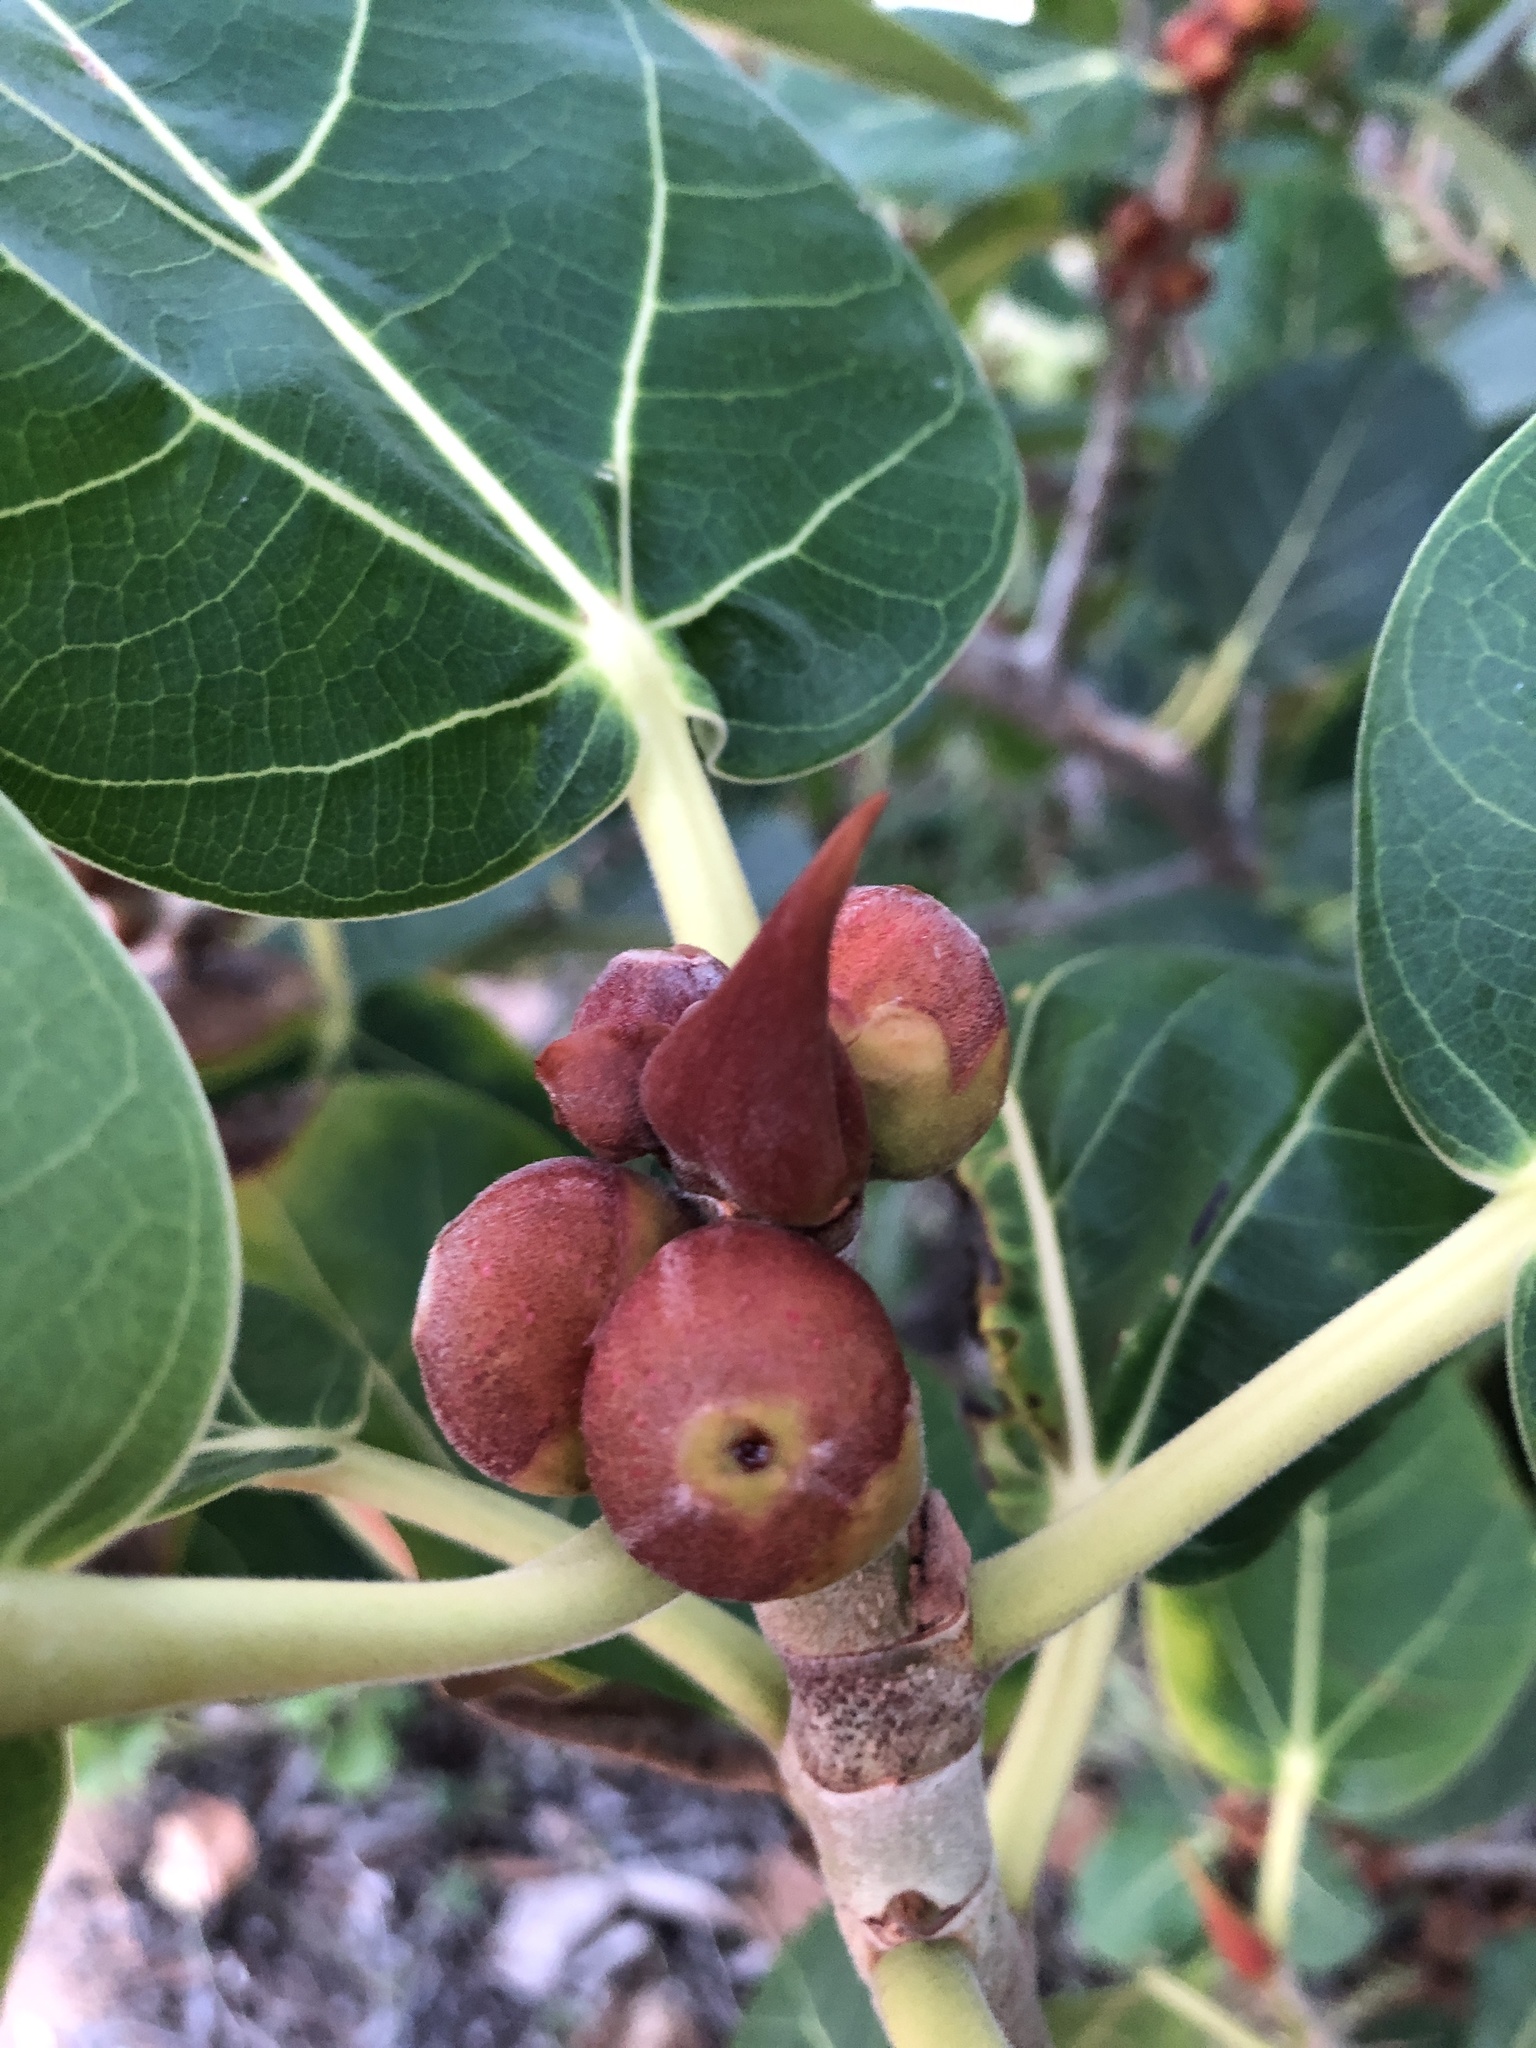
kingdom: Plantae
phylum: Tracheophyta
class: Magnoliopsida
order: Rosales
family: Moraceae
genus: Ficus
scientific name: Ficus benghalensis
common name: Indian banyan
